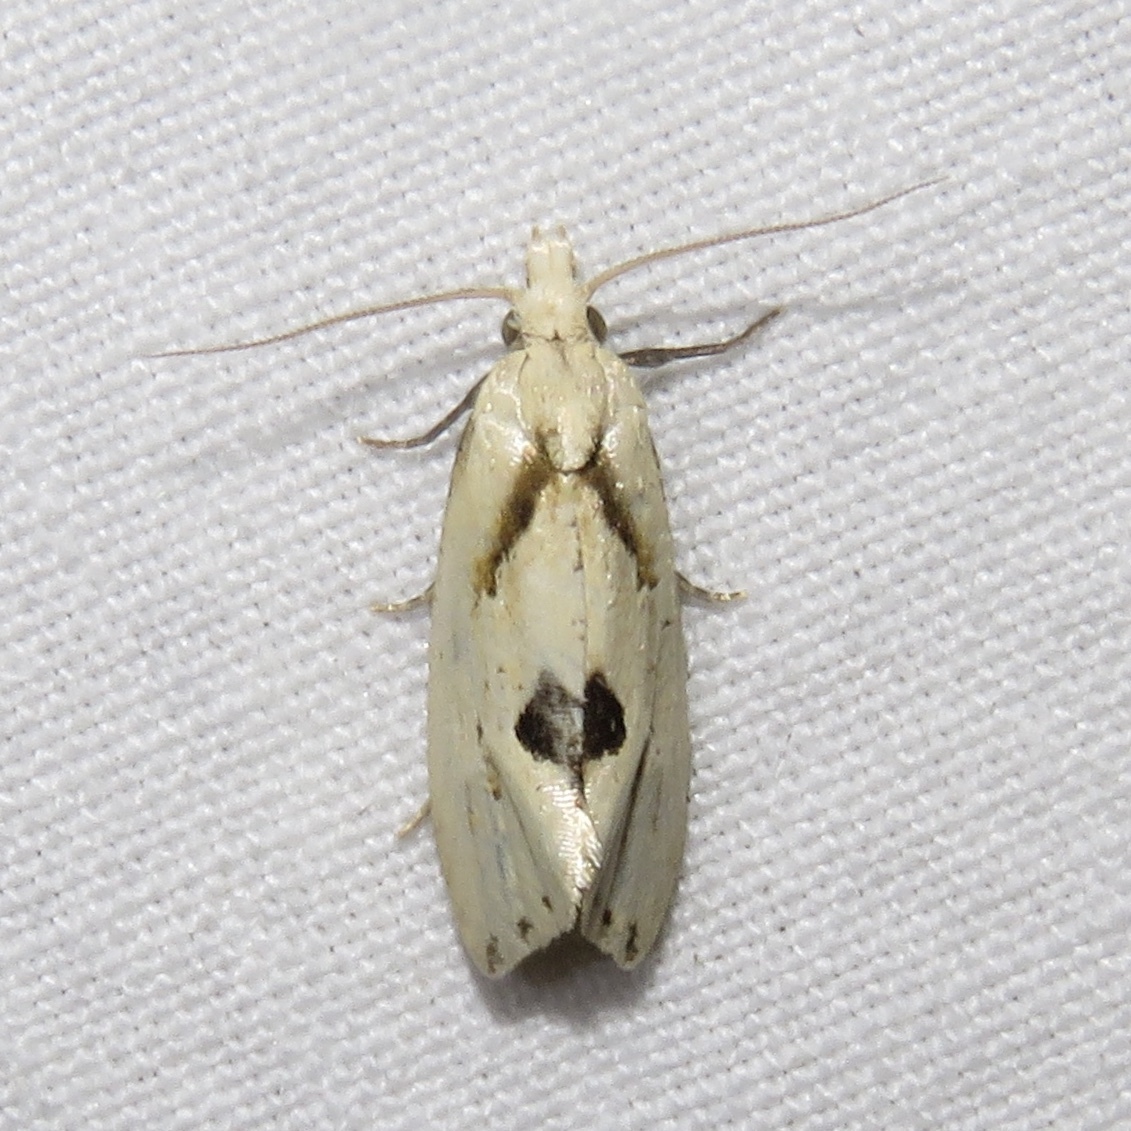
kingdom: Animalia
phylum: Arthropoda
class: Insecta
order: Lepidoptera
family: Tortricidae
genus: Aethes
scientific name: Aethes mymara
